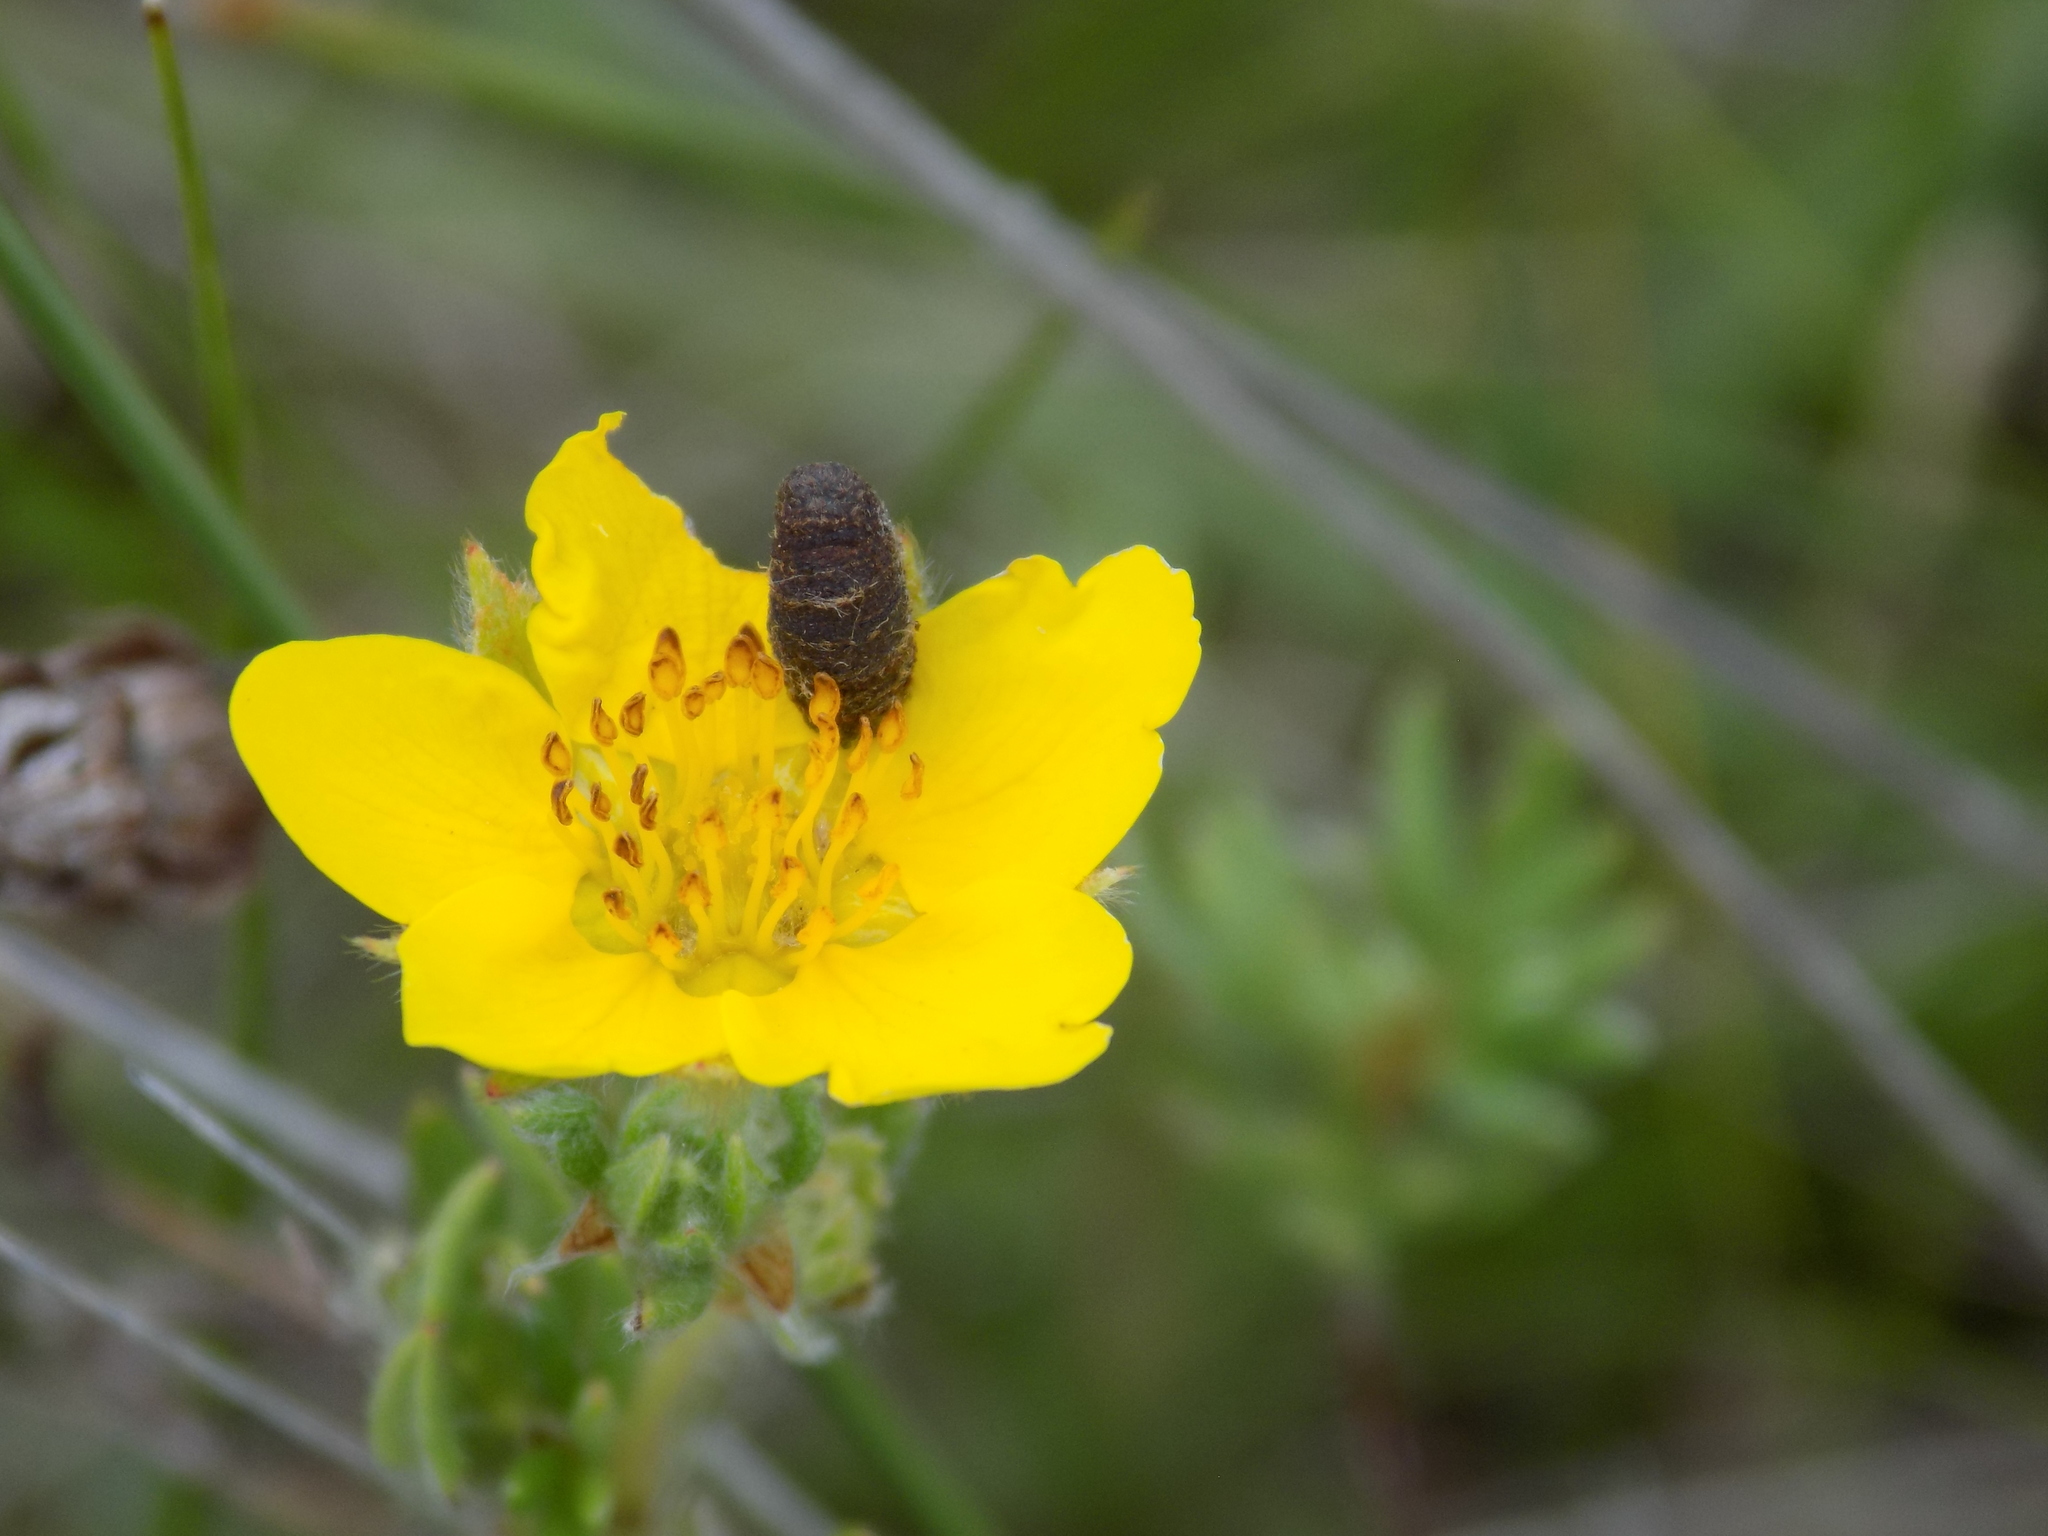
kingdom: Plantae
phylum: Tracheophyta
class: Magnoliopsida
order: Rosales
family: Rosaceae
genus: Dasiphora
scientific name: Dasiphora fruticosa
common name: Shrubby cinquefoil
